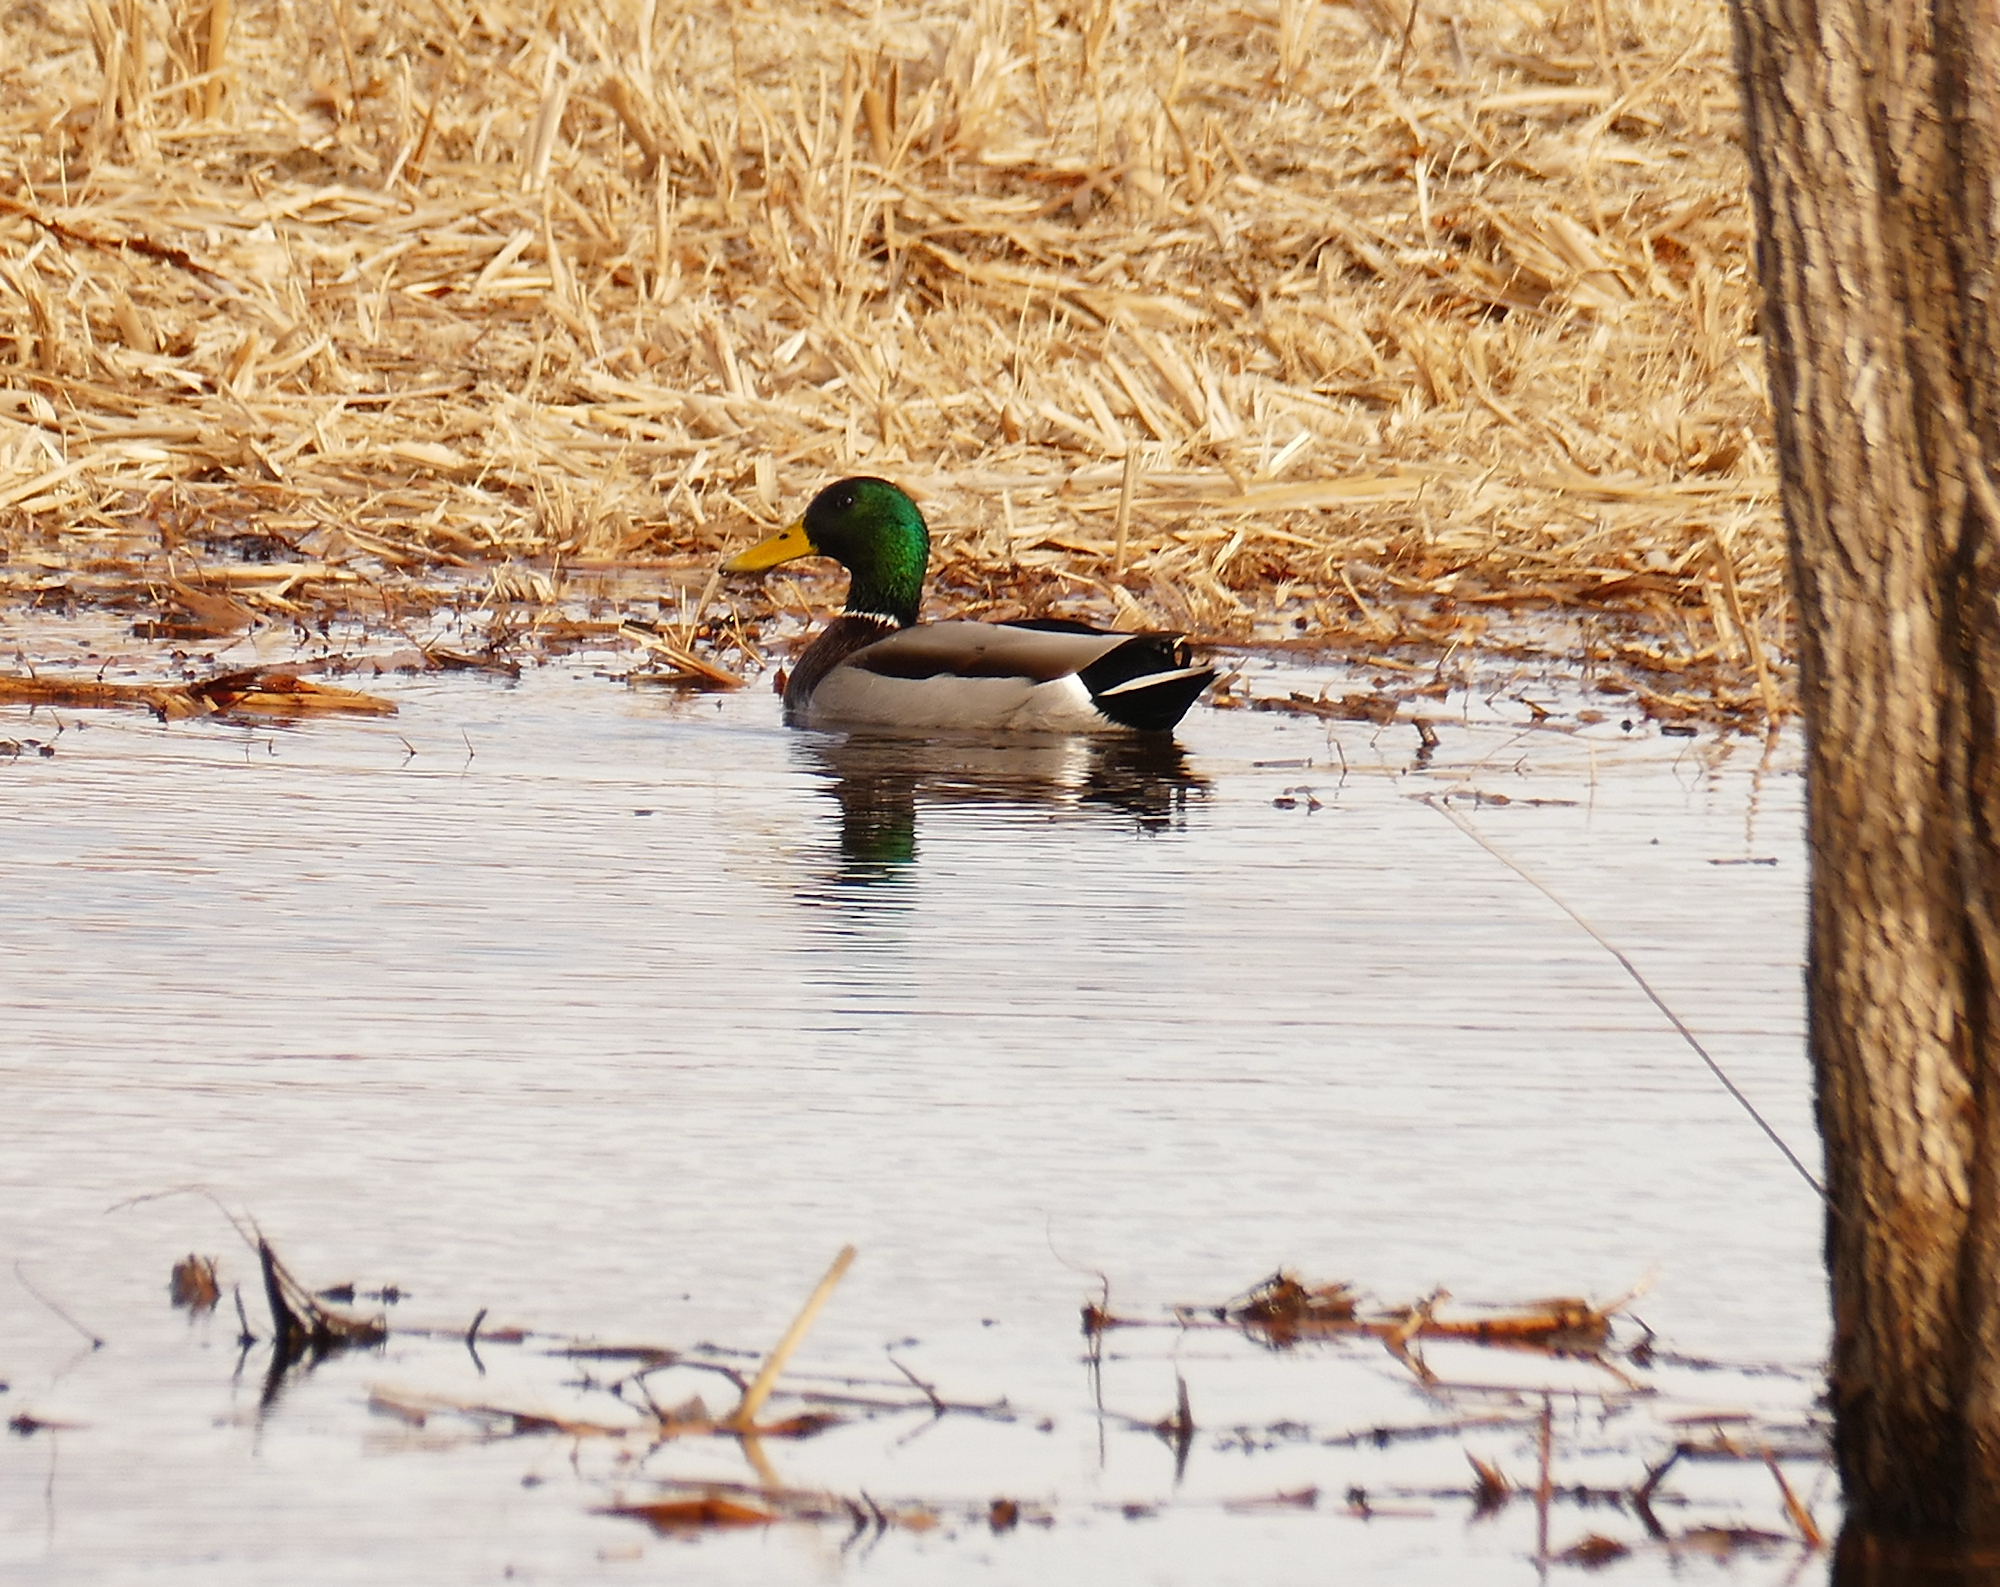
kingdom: Animalia
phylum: Chordata
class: Aves
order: Anseriformes
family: Anatidae
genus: Anas
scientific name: Anas platyrhynchos
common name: Mallard
